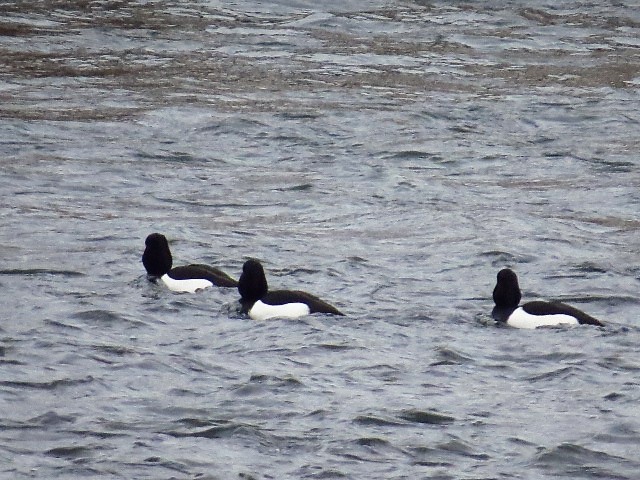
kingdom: Animalia
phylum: Chordata
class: Aves
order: Anseriformes
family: Anatidae
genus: Aythya
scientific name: Aythya fuligula
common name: Tufted duck
